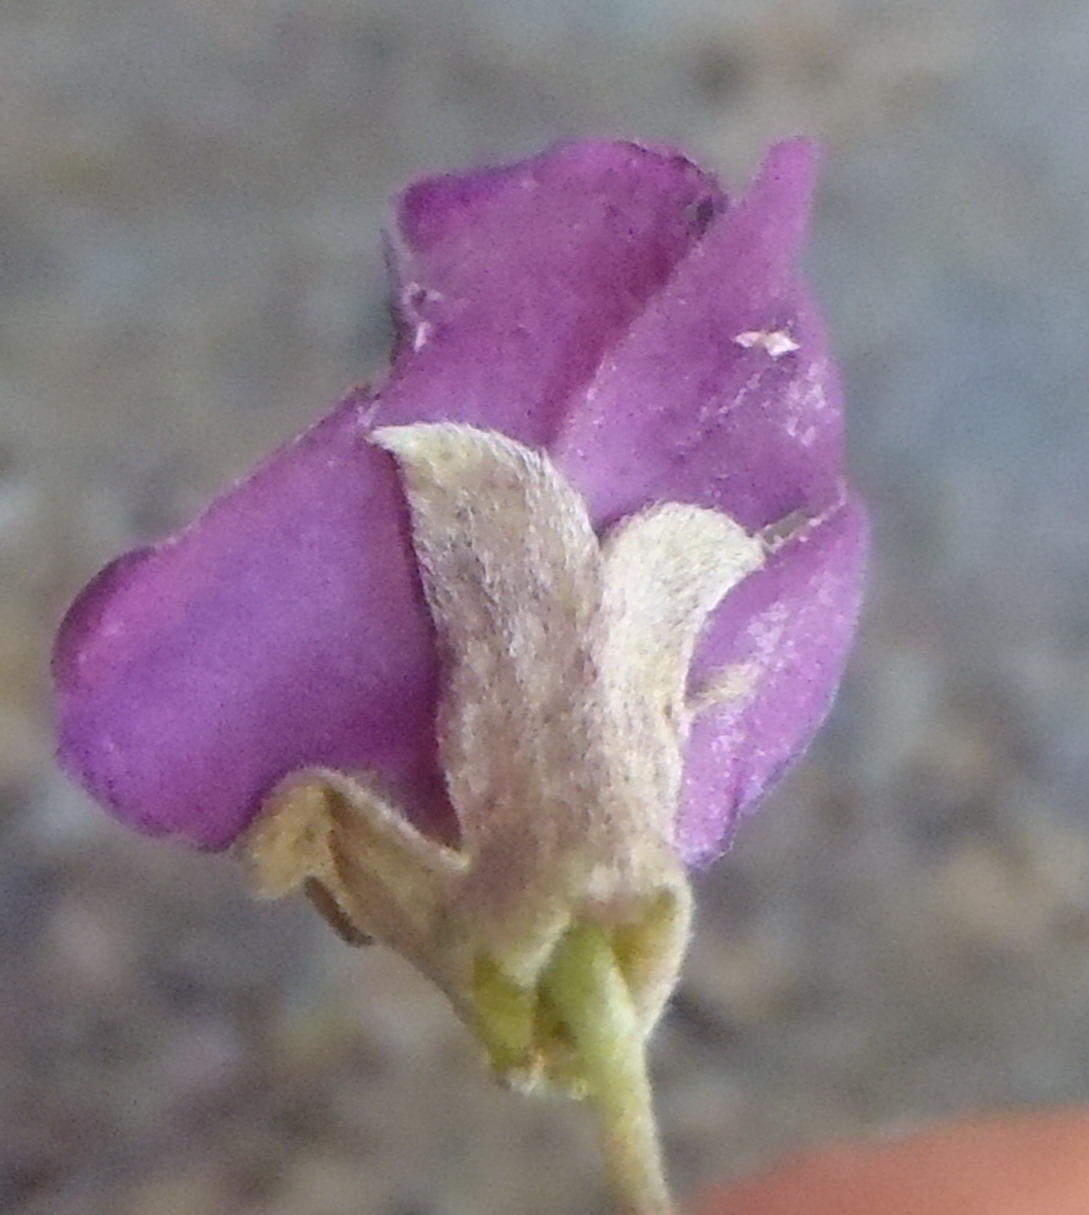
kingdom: Plantae
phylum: Tracheophyta
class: Magnoliopsida
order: Fabales
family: Fabaceae
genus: Podalyria
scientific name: Podalyria buxifolia
